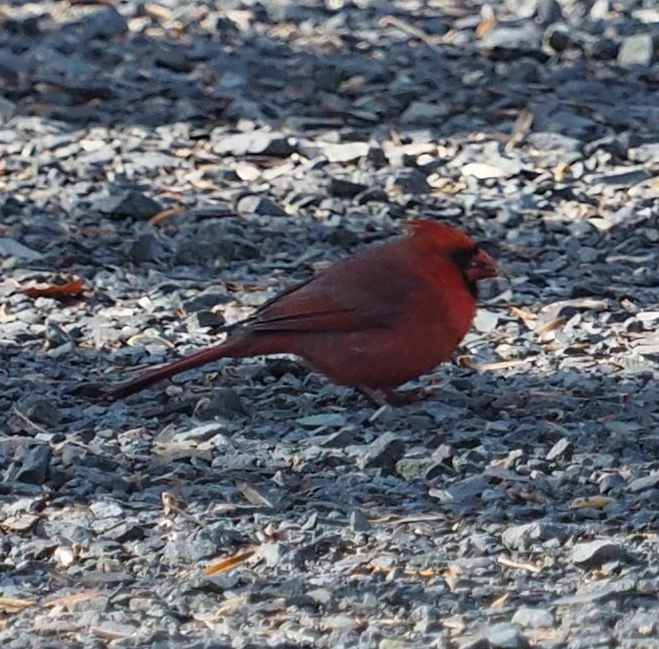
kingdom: Animalia
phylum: Chordata
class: Aves
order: Passeriformes
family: Cardinalidae
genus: Cardinalis
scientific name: Cardinalis cardinalis
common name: Northern cardinal
